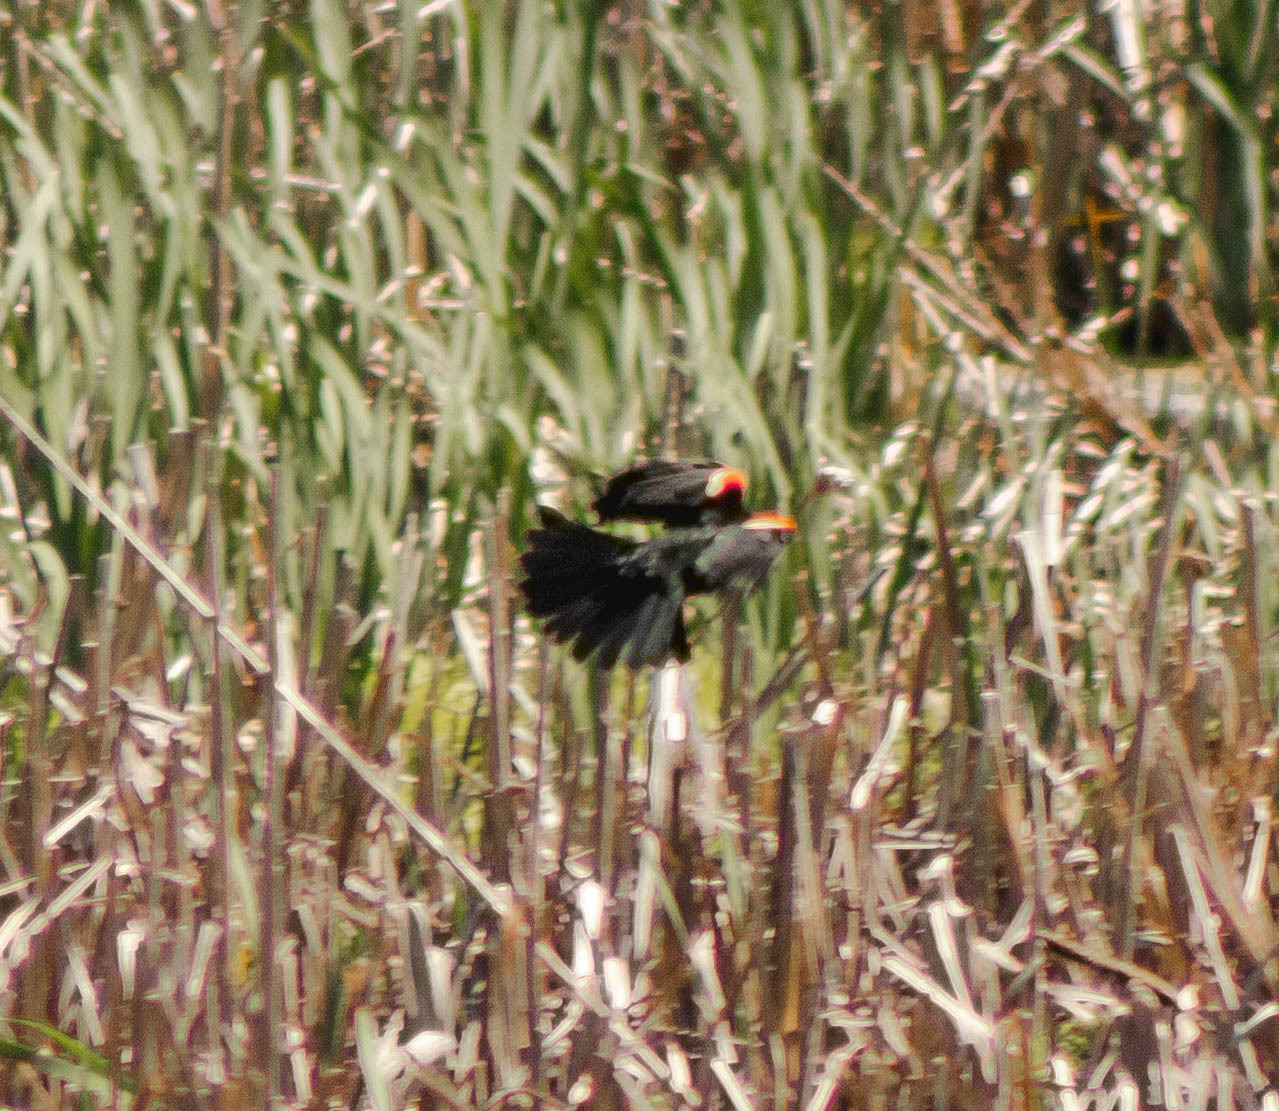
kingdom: Animalia
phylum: Chordata
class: Aves
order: Passeriformes
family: Icteridae
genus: Agelaius
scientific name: Agelaius phoeniceus
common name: Red-winged blackbird
